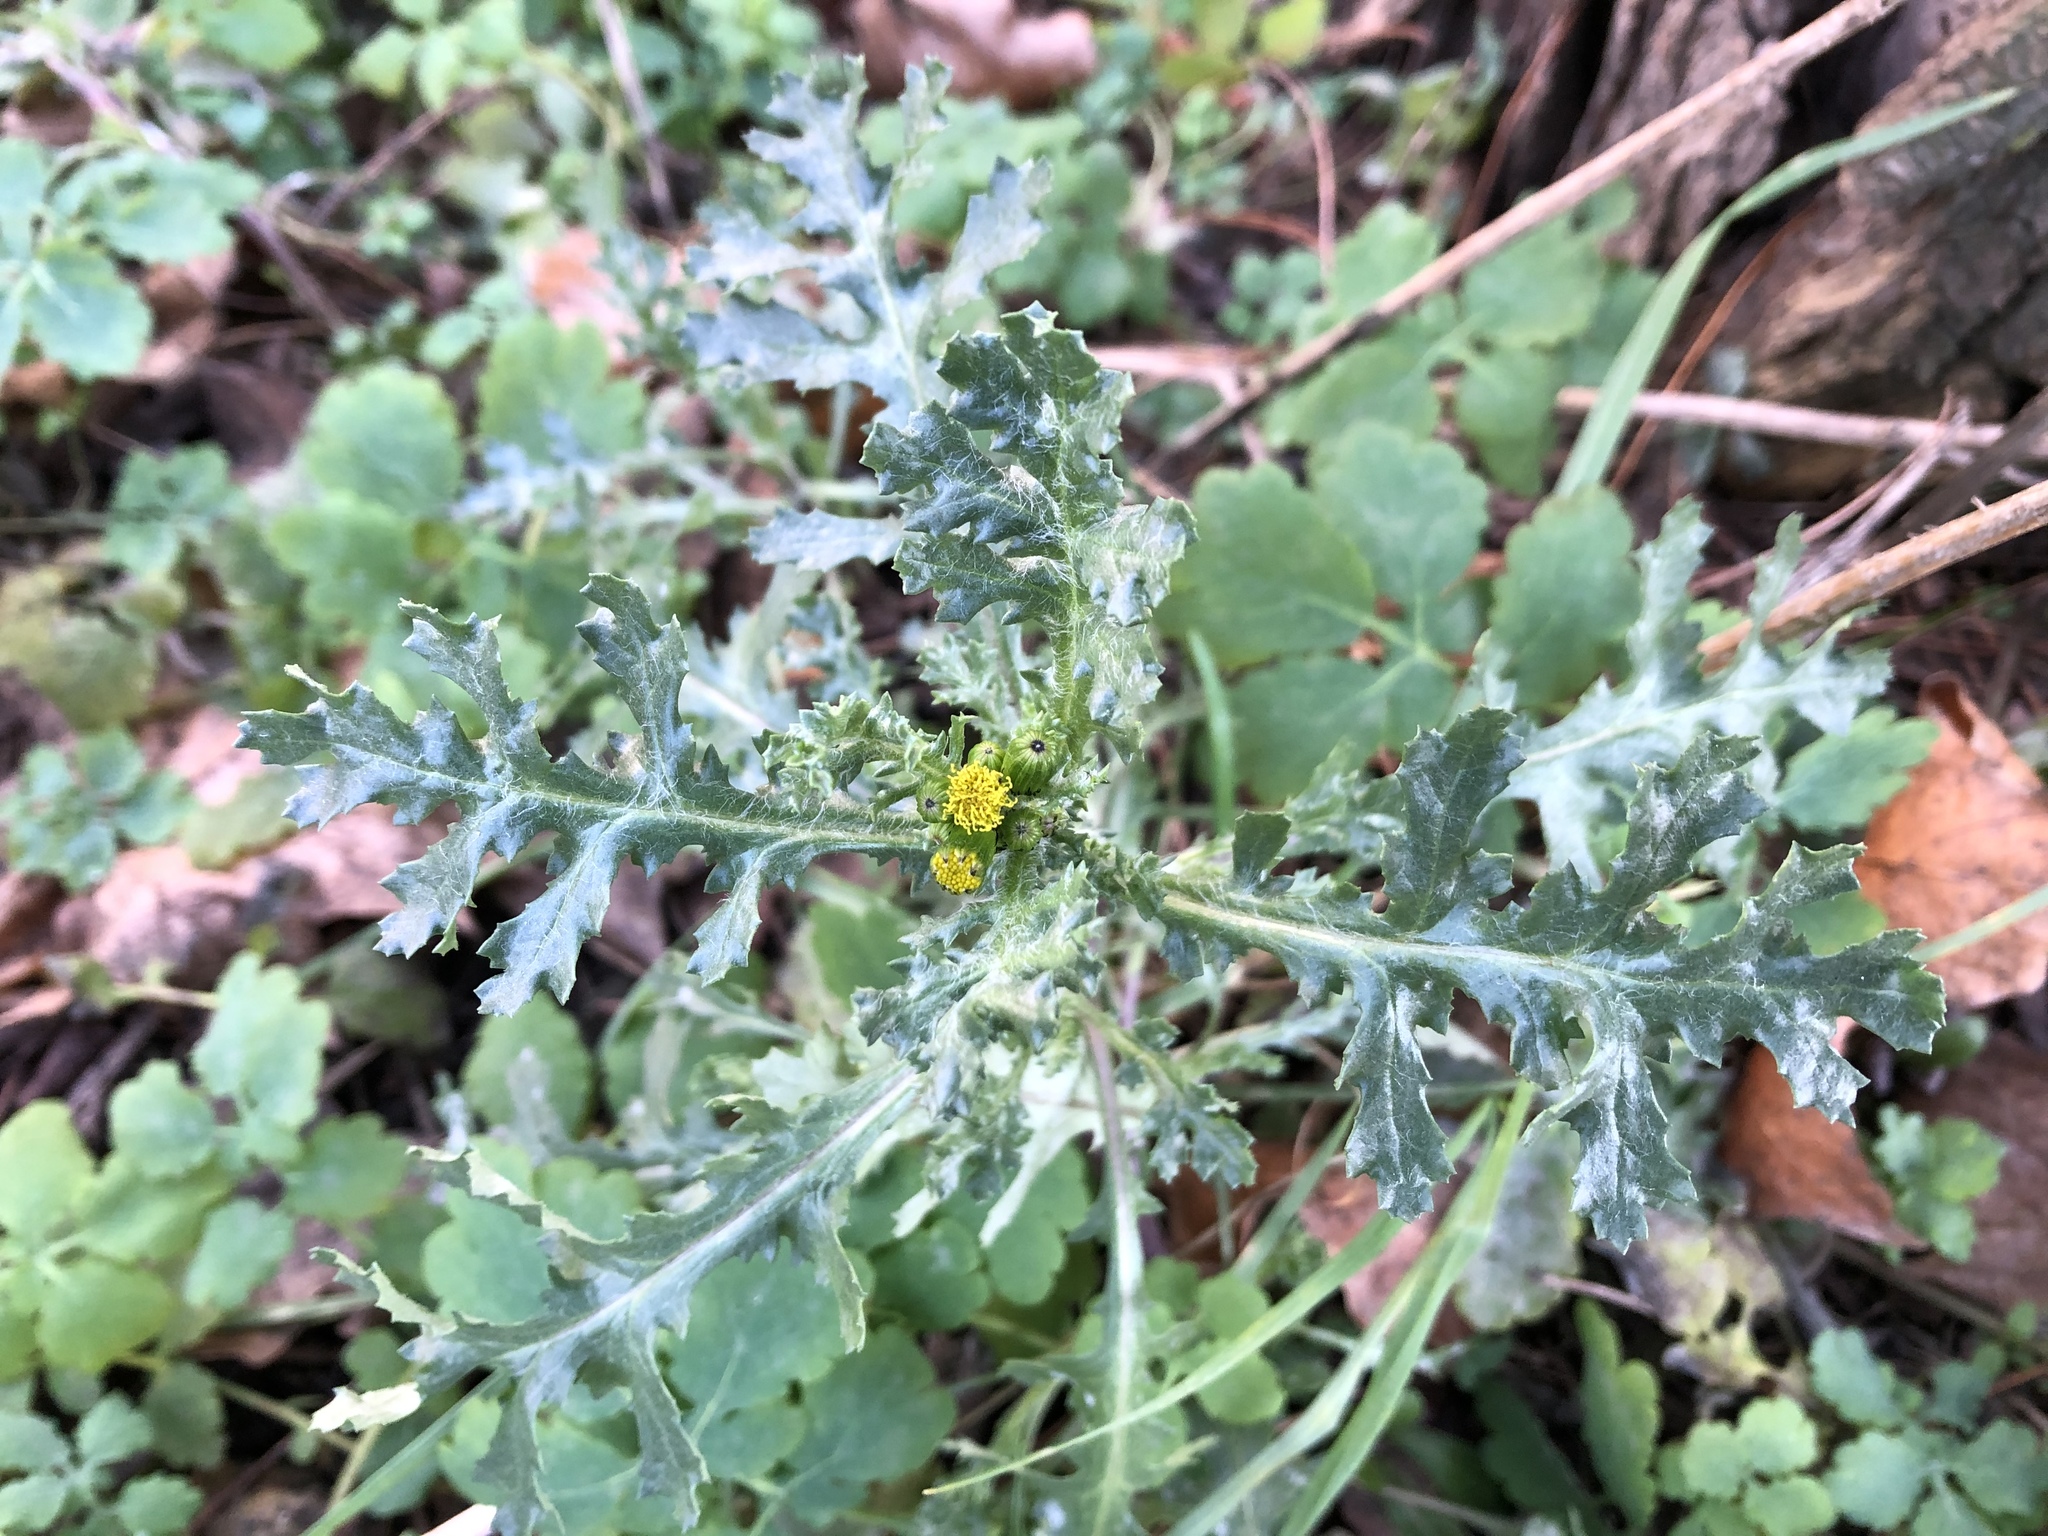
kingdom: Plantae
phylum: Tracheophyta
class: Magnoliopsida
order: Asterales
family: Asteraceae
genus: Senecio
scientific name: Senecio vulgaris
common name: Old-man-in-the-spring
